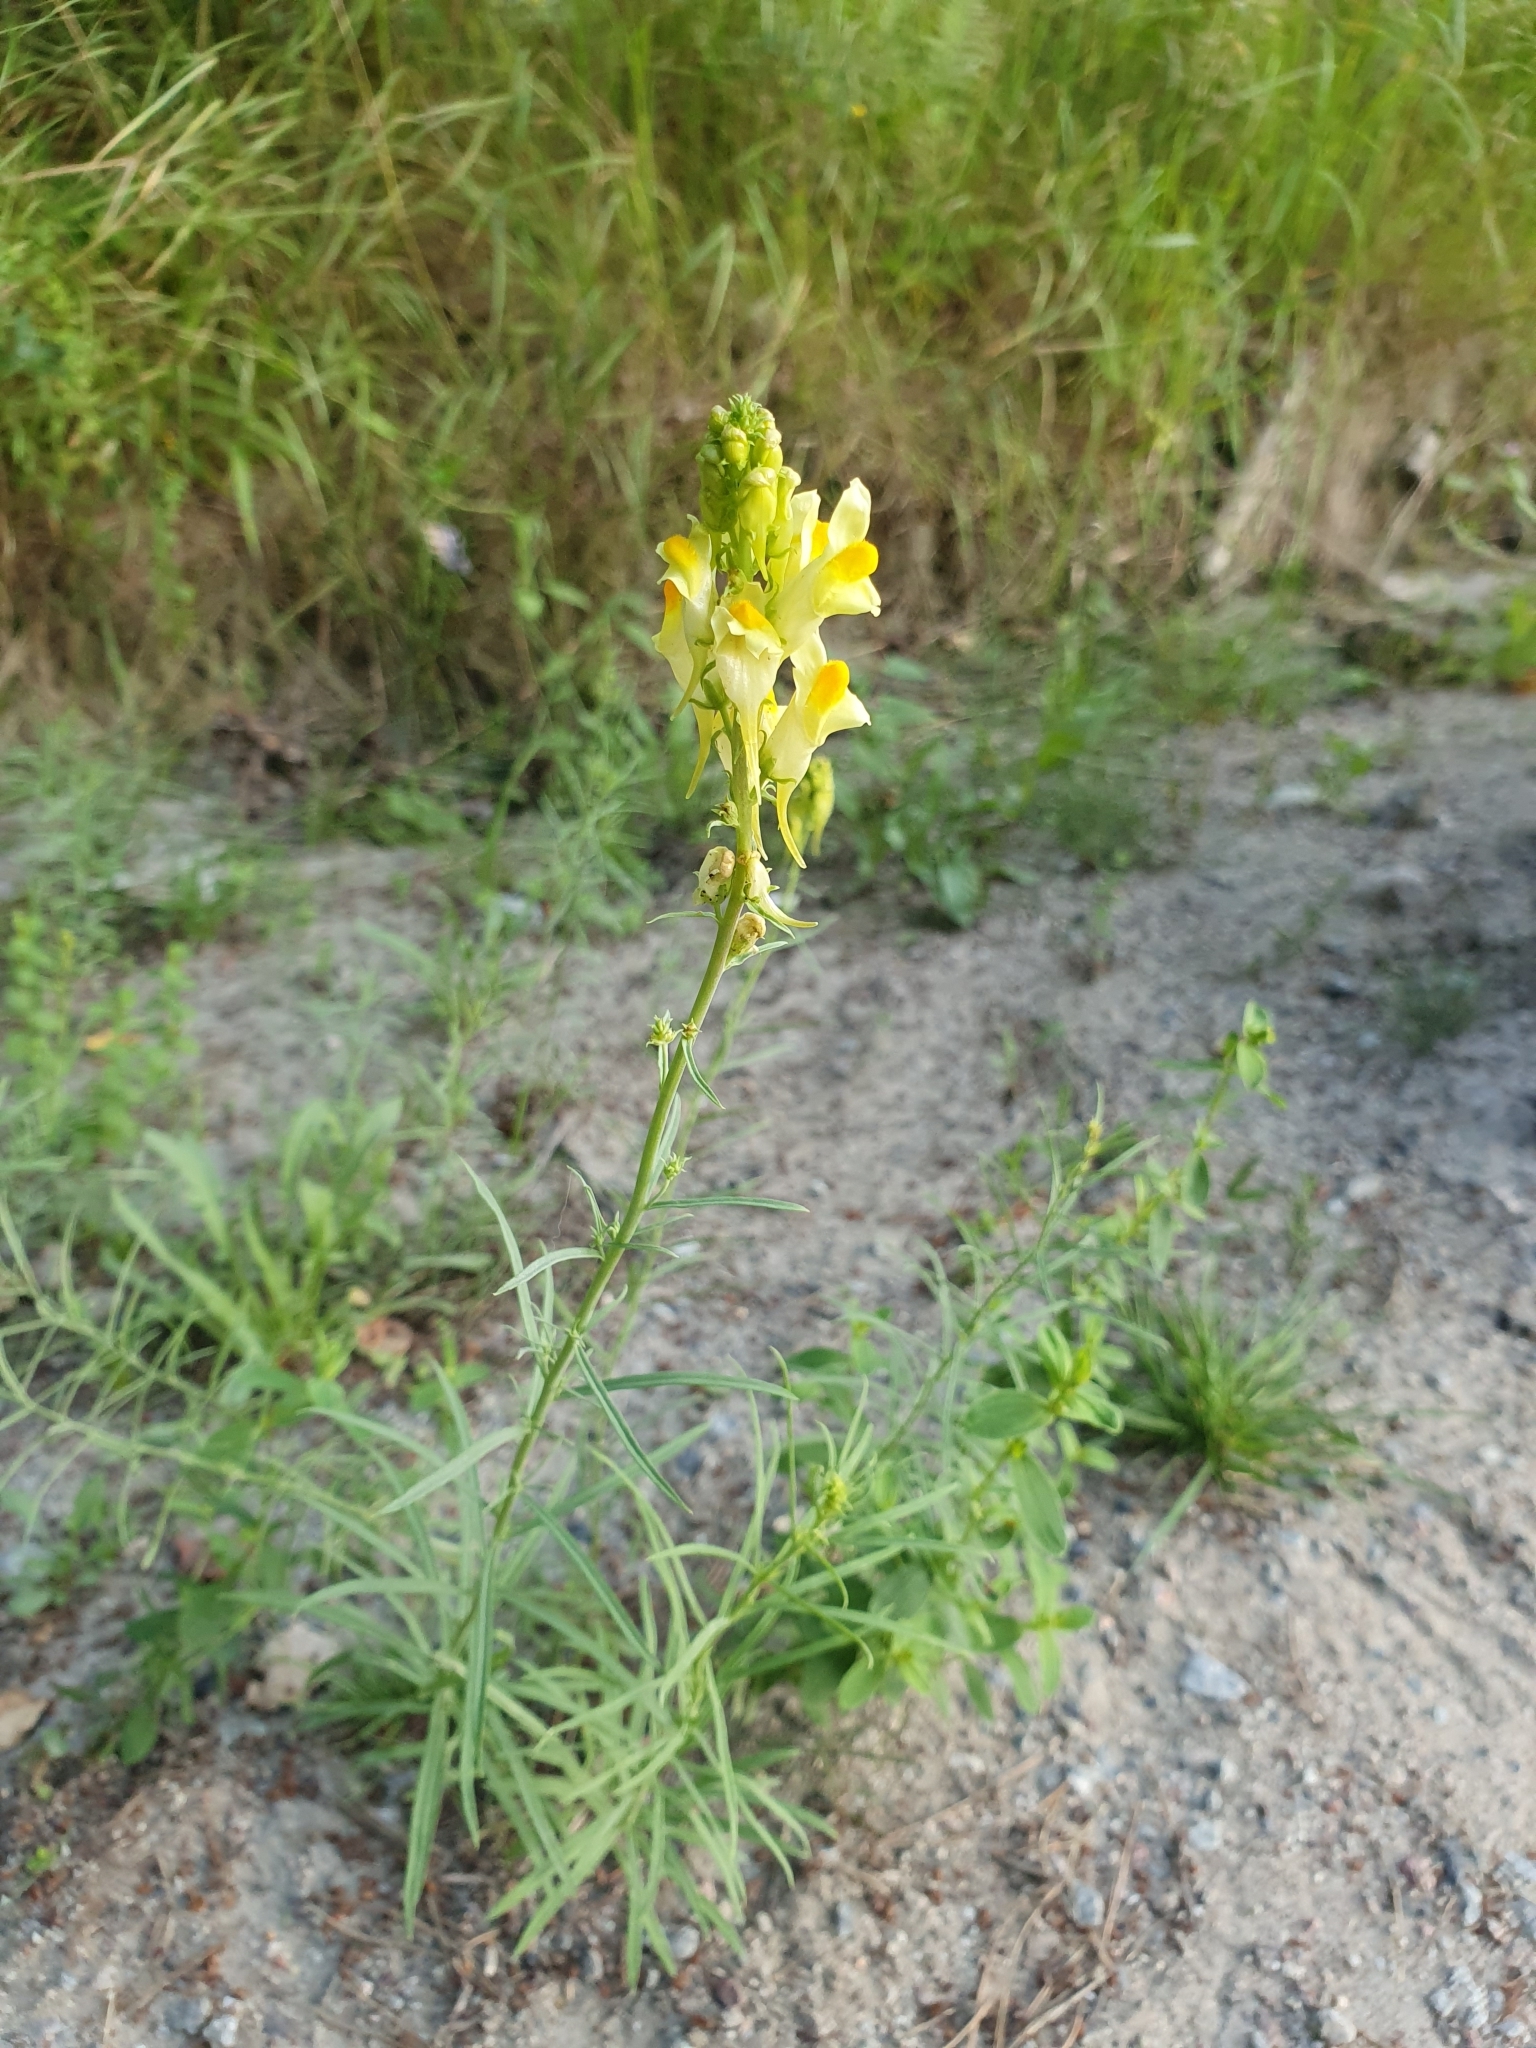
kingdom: Plantae
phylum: Tracheophyta
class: Magnoliopsida
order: Lamiales
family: Plantaginaceae
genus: Linaria
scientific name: Linaria vulgaris
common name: Butter and eggs
